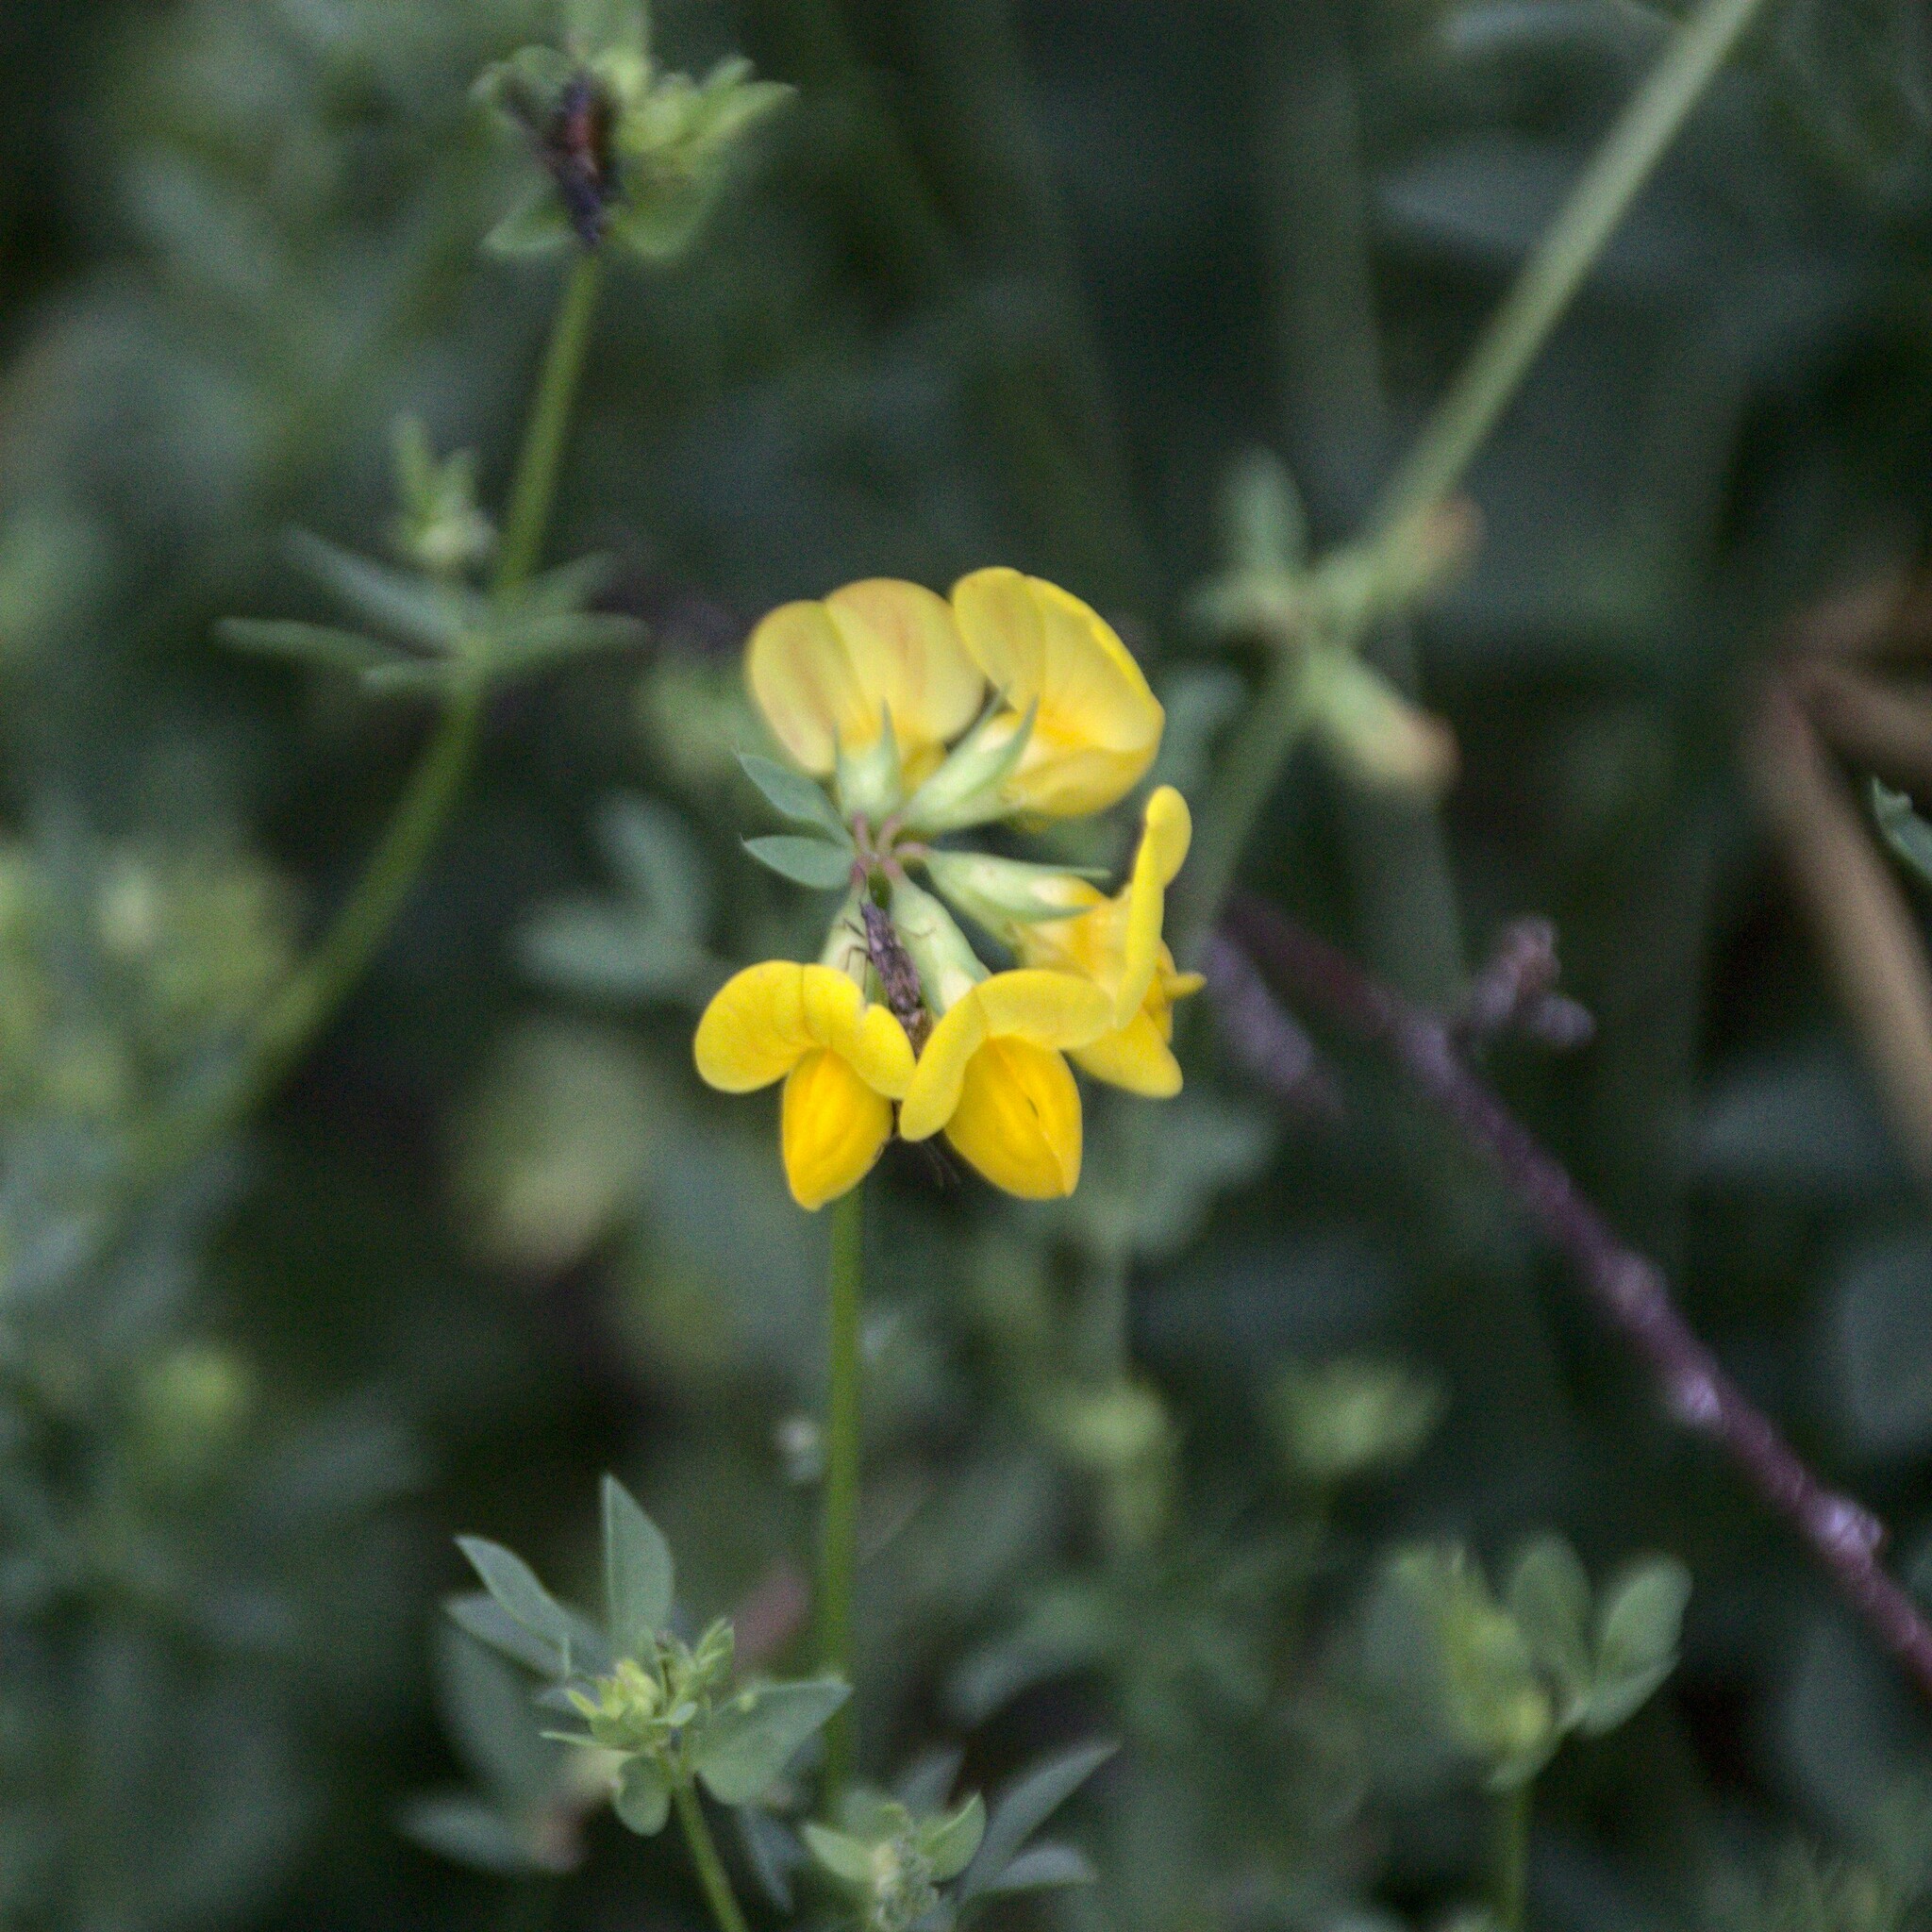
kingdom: Plantae
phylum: Tracheophyta
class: Magnoliopsida
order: Fabales
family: Fabaceae
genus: Lotus
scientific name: Lotus corniculatus
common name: Common bird's-foot-trefoil
